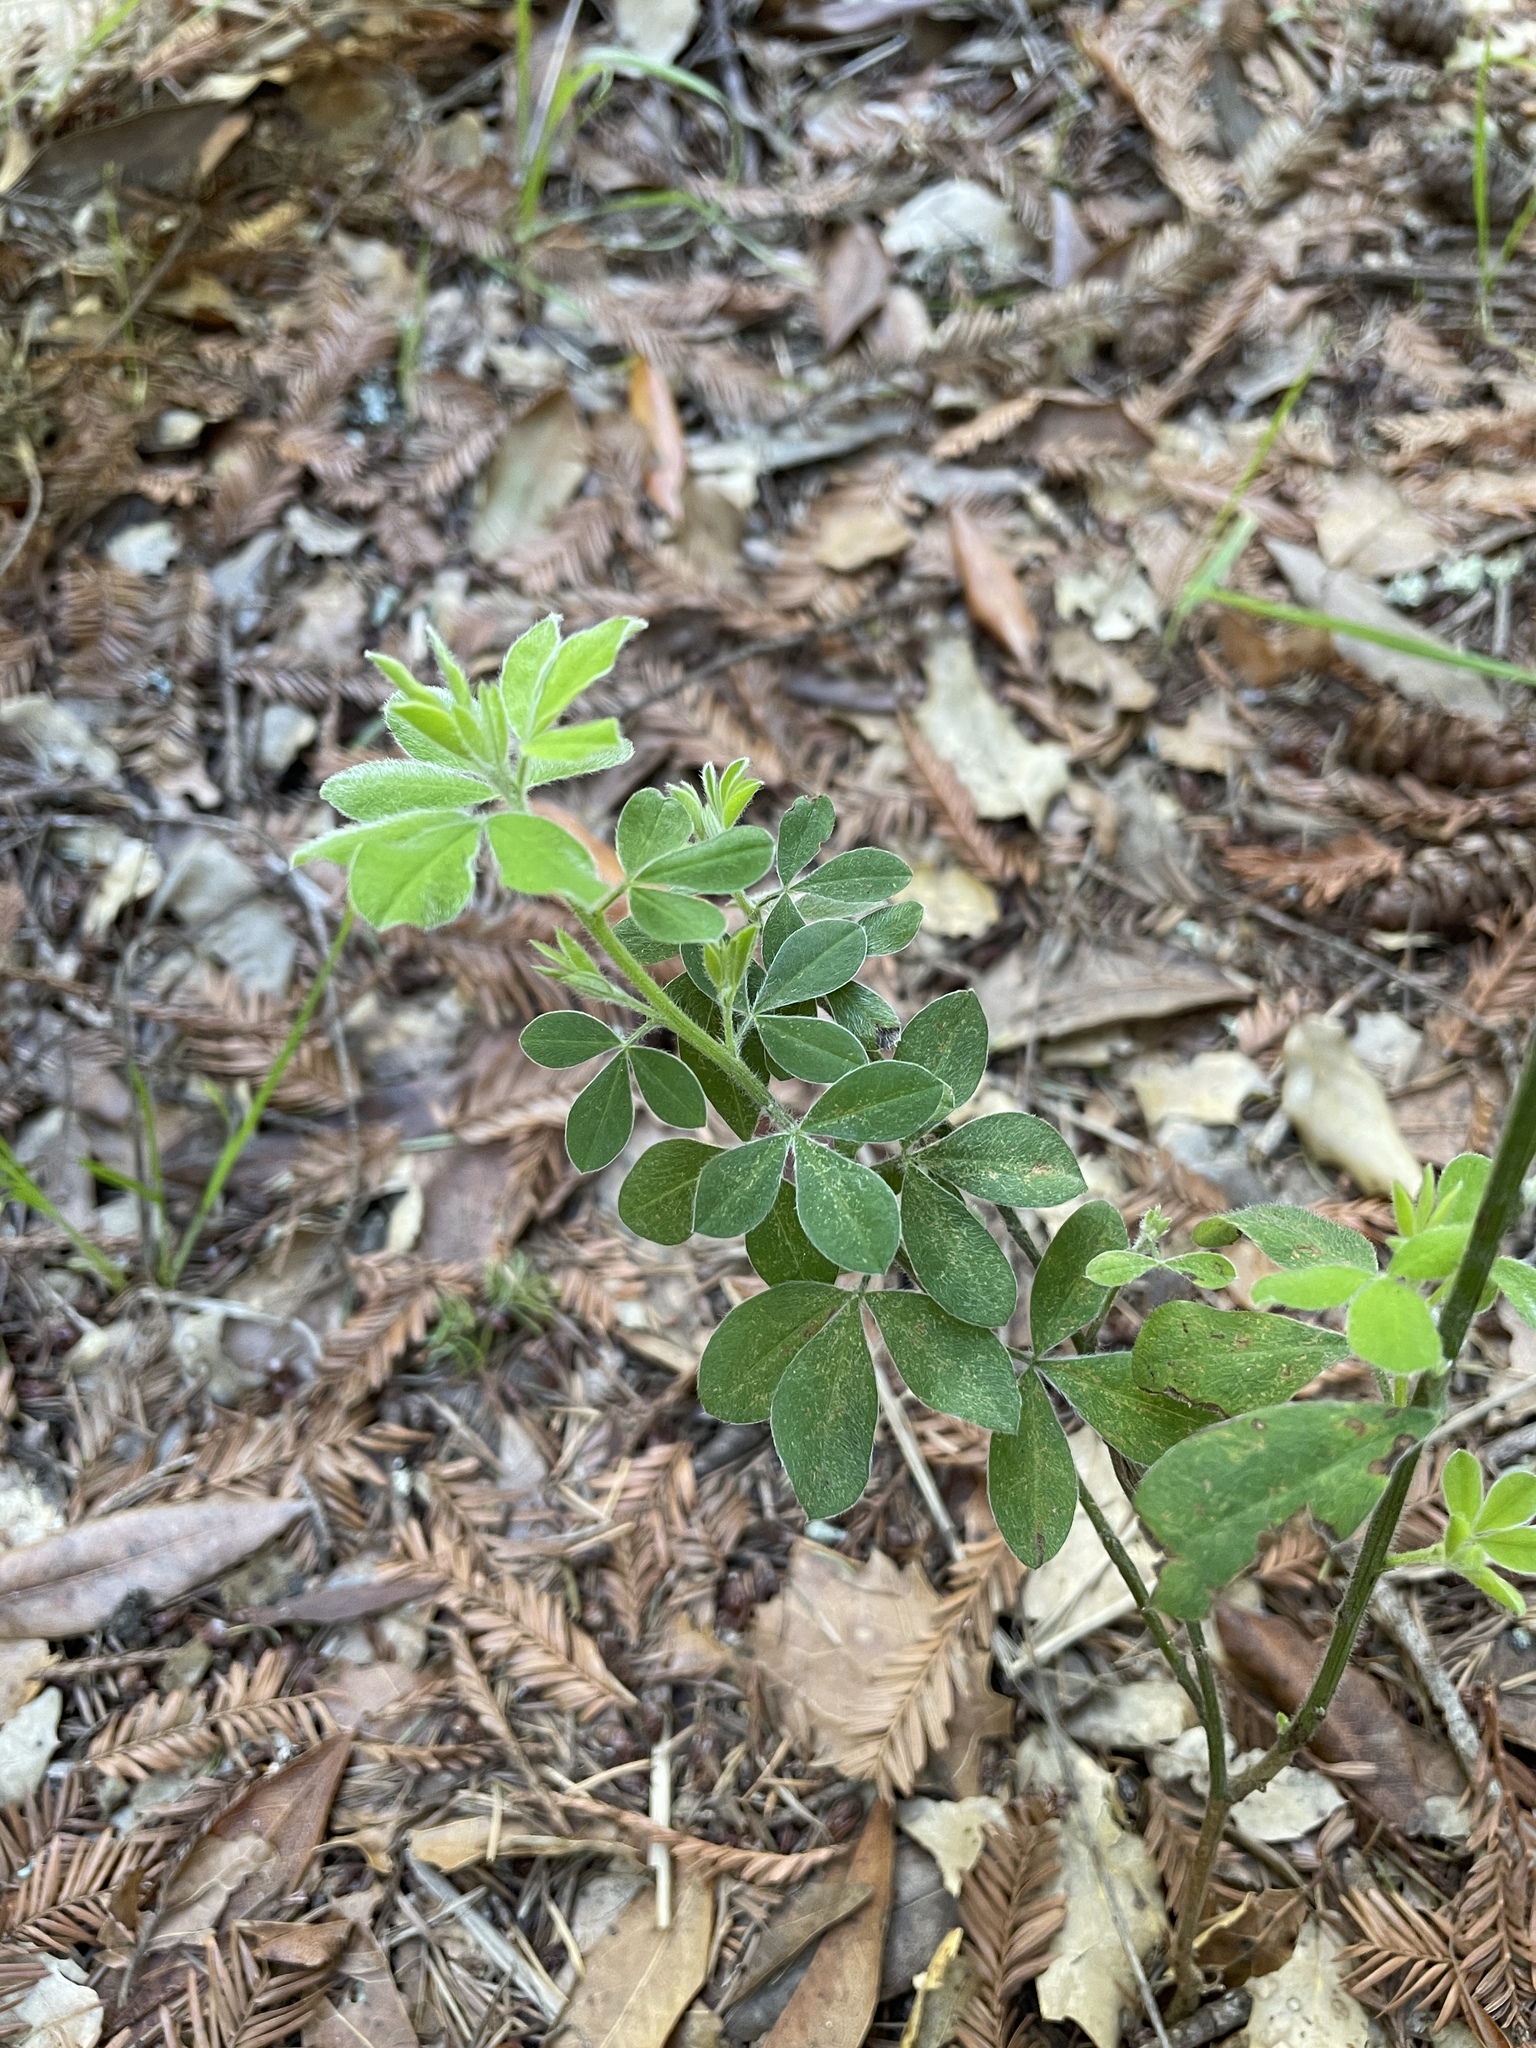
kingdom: Plantae
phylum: Tracheophyta
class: Magnoliopsida
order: Fabales
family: Fabaceae
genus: Genista
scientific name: Genista monspessulana
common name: Montpellier broom
